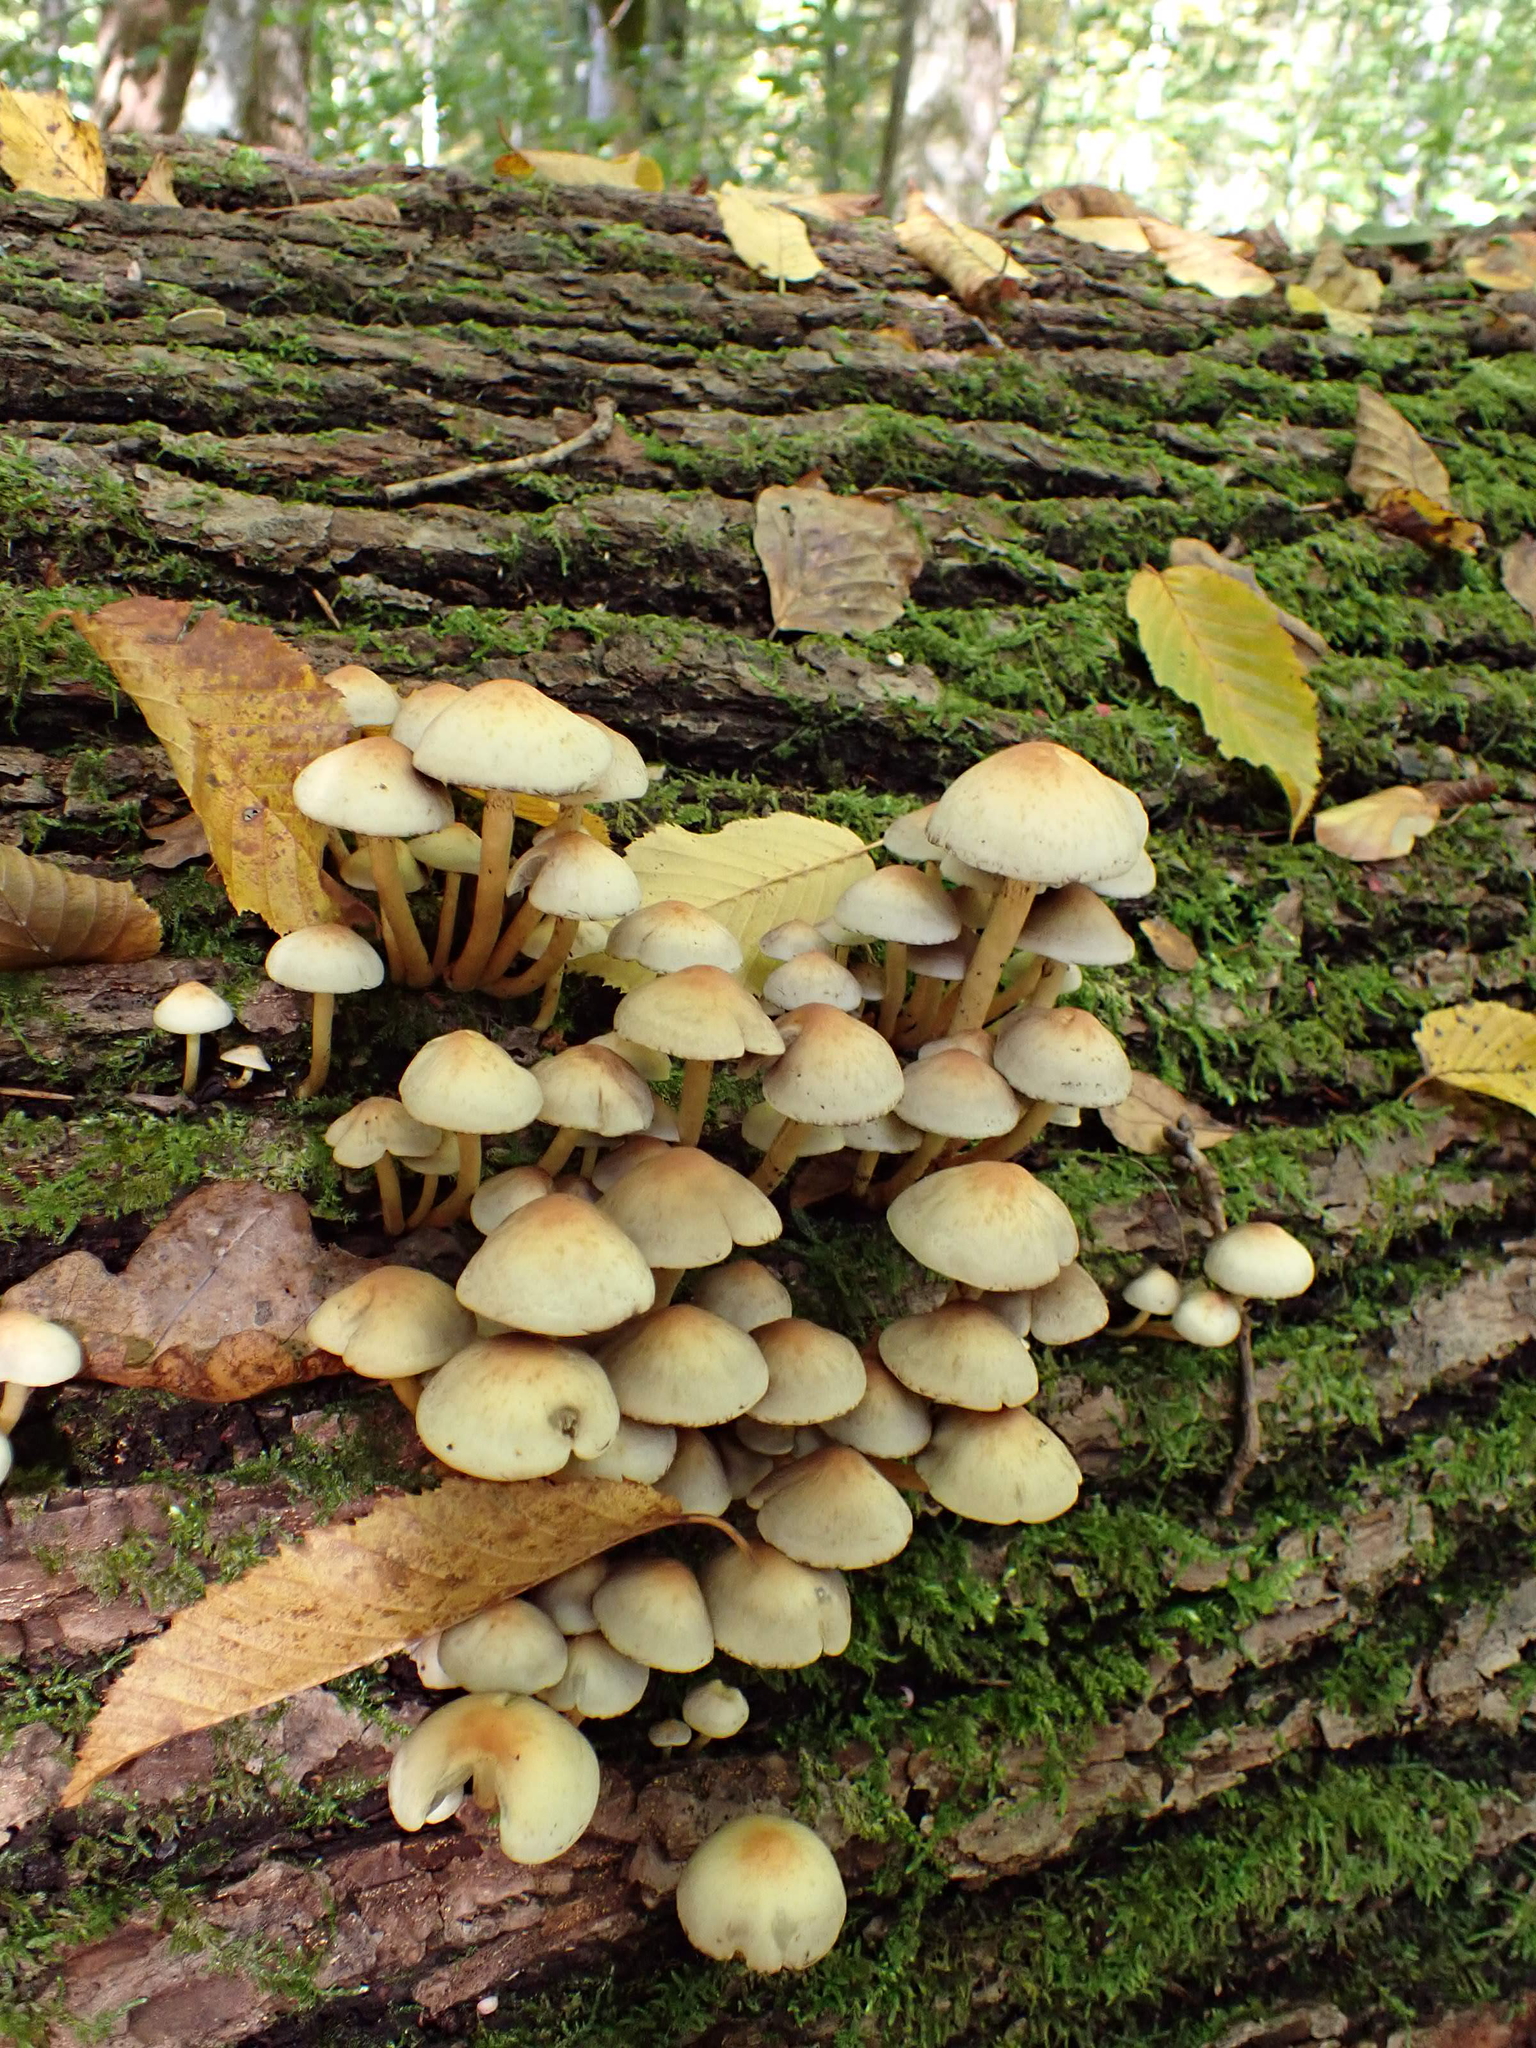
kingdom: Fungi
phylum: Basidiomycota
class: Agaricomycetes
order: Agaricales
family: Strophariaceae
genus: Hypholoma
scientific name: Hypholoma fasciculare
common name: Sulphur tuft
